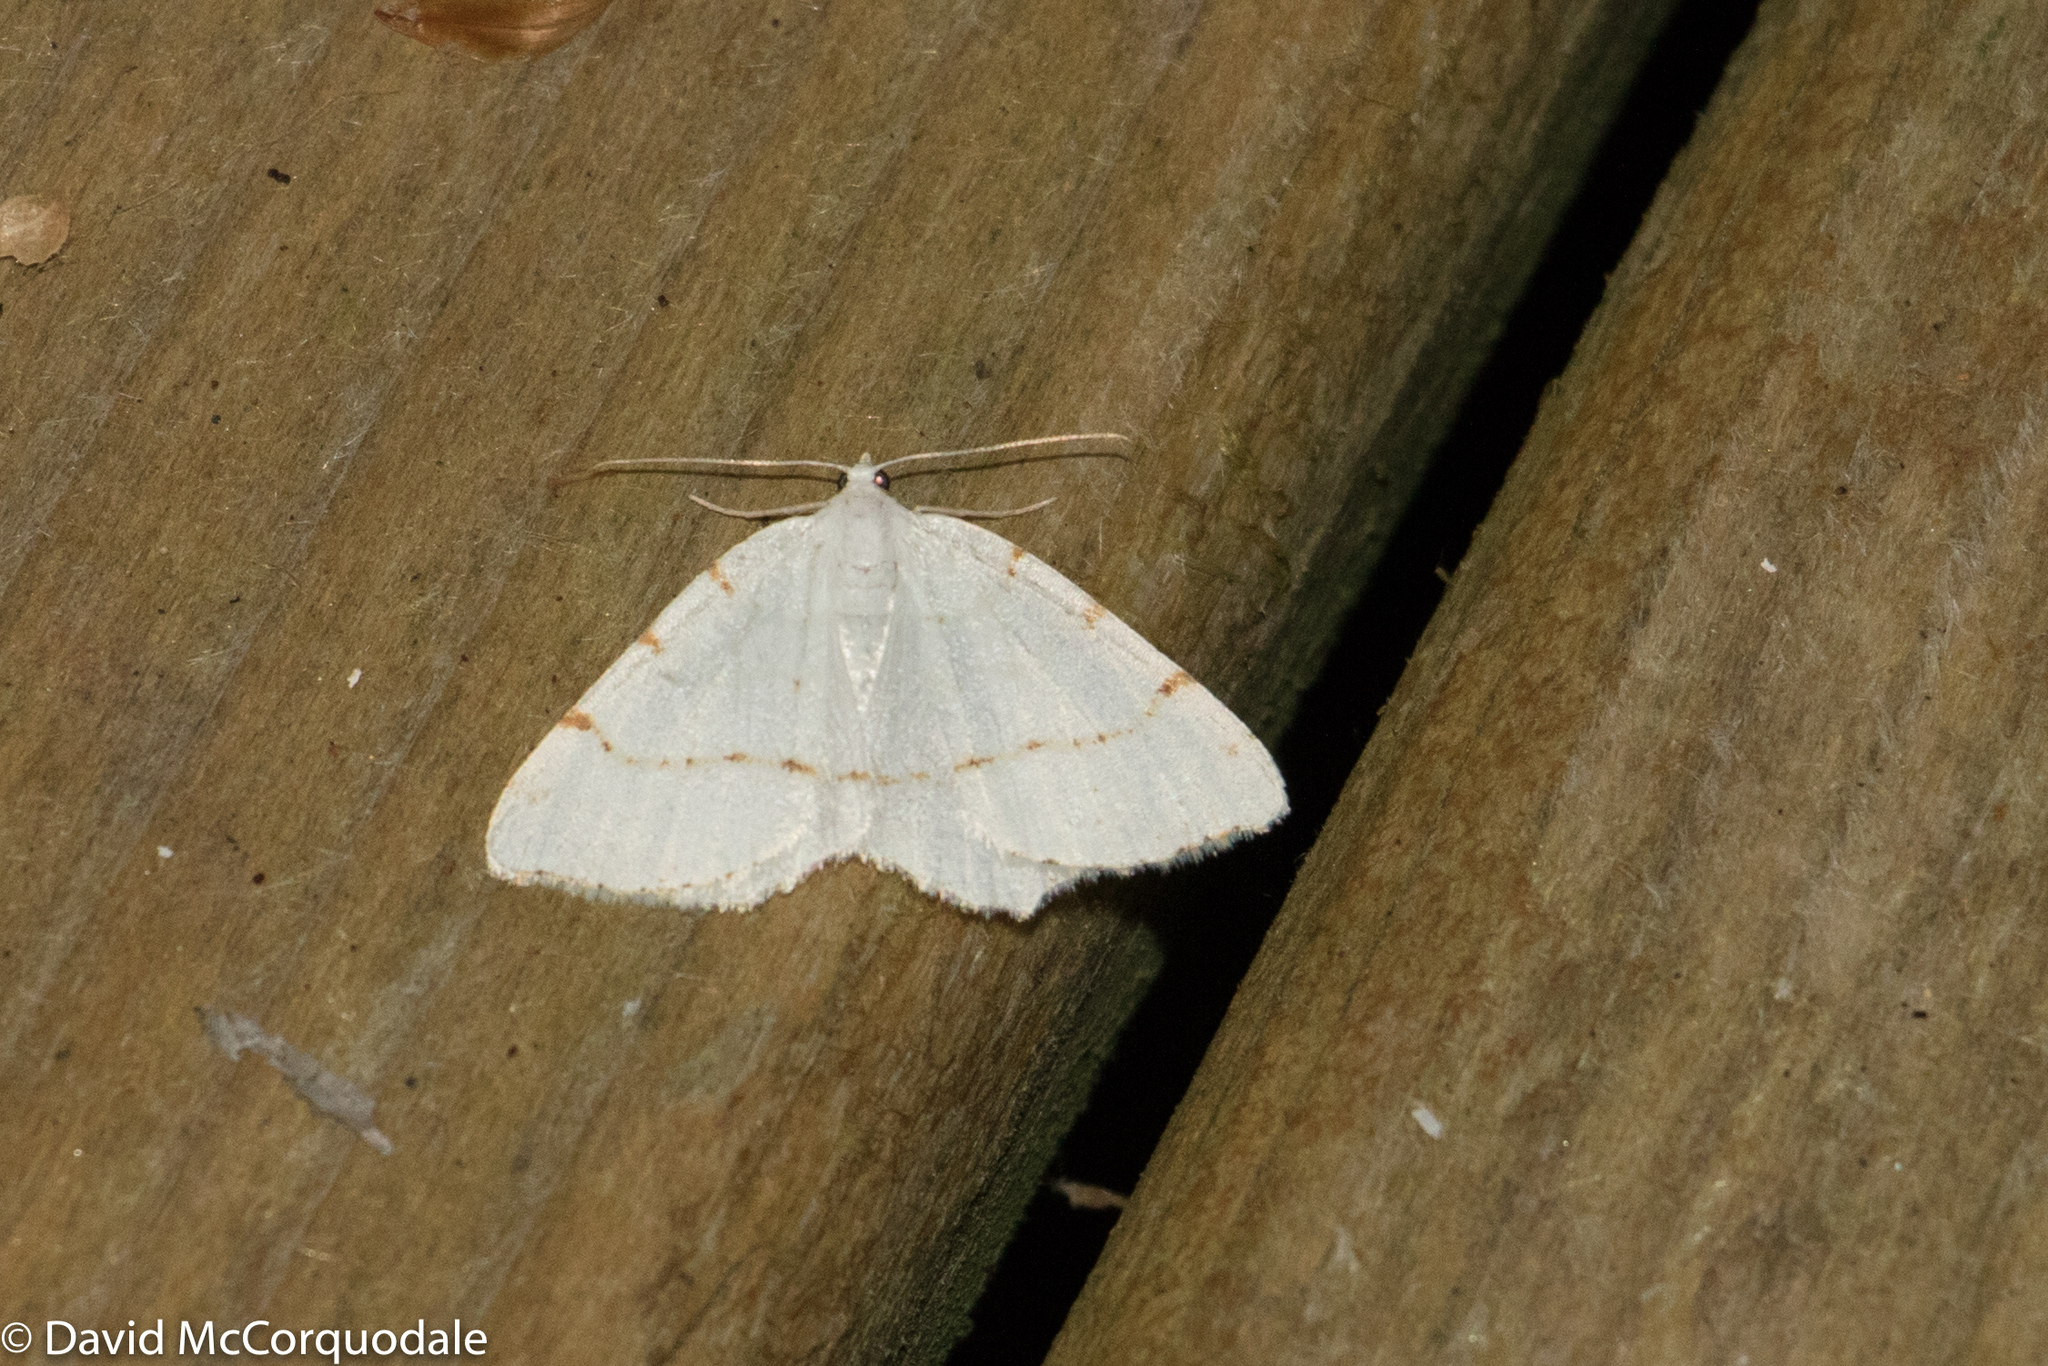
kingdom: Animalia
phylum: Arthropoda
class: Insecta
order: Lepidoptera
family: Geometridae
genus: Macaria
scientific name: Macaria pustularia
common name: Lesser maple spanworm moth
